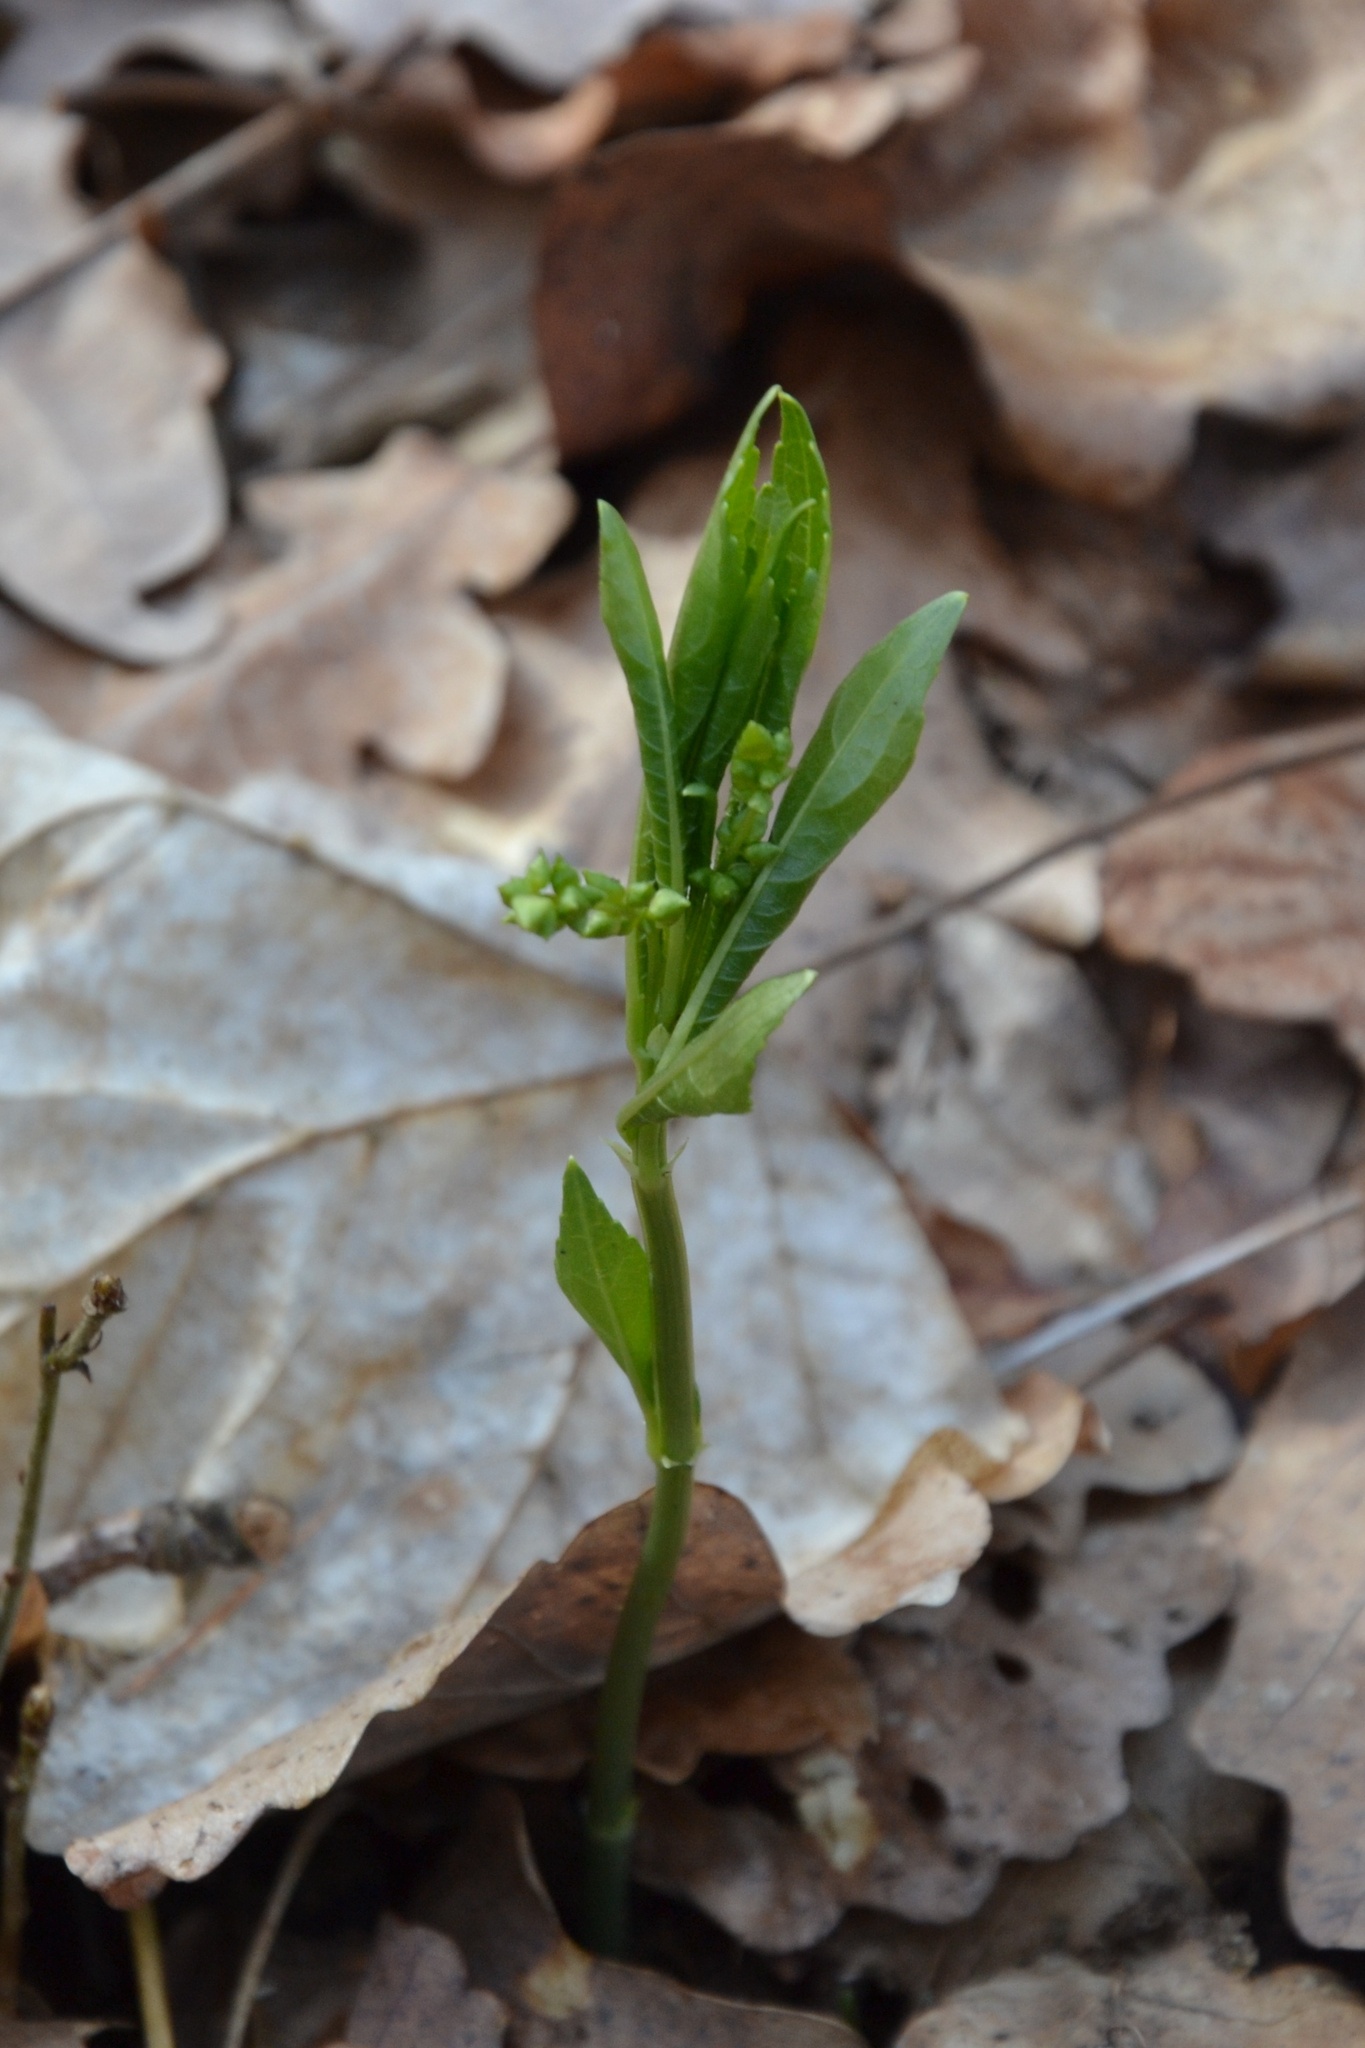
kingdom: Plantae
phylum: Tracheophyta
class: Magnoliopsida
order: Malpighiales
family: Euphorbiaceae
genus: Mercurialis
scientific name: Mercurialis perennis
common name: Dog mercury
